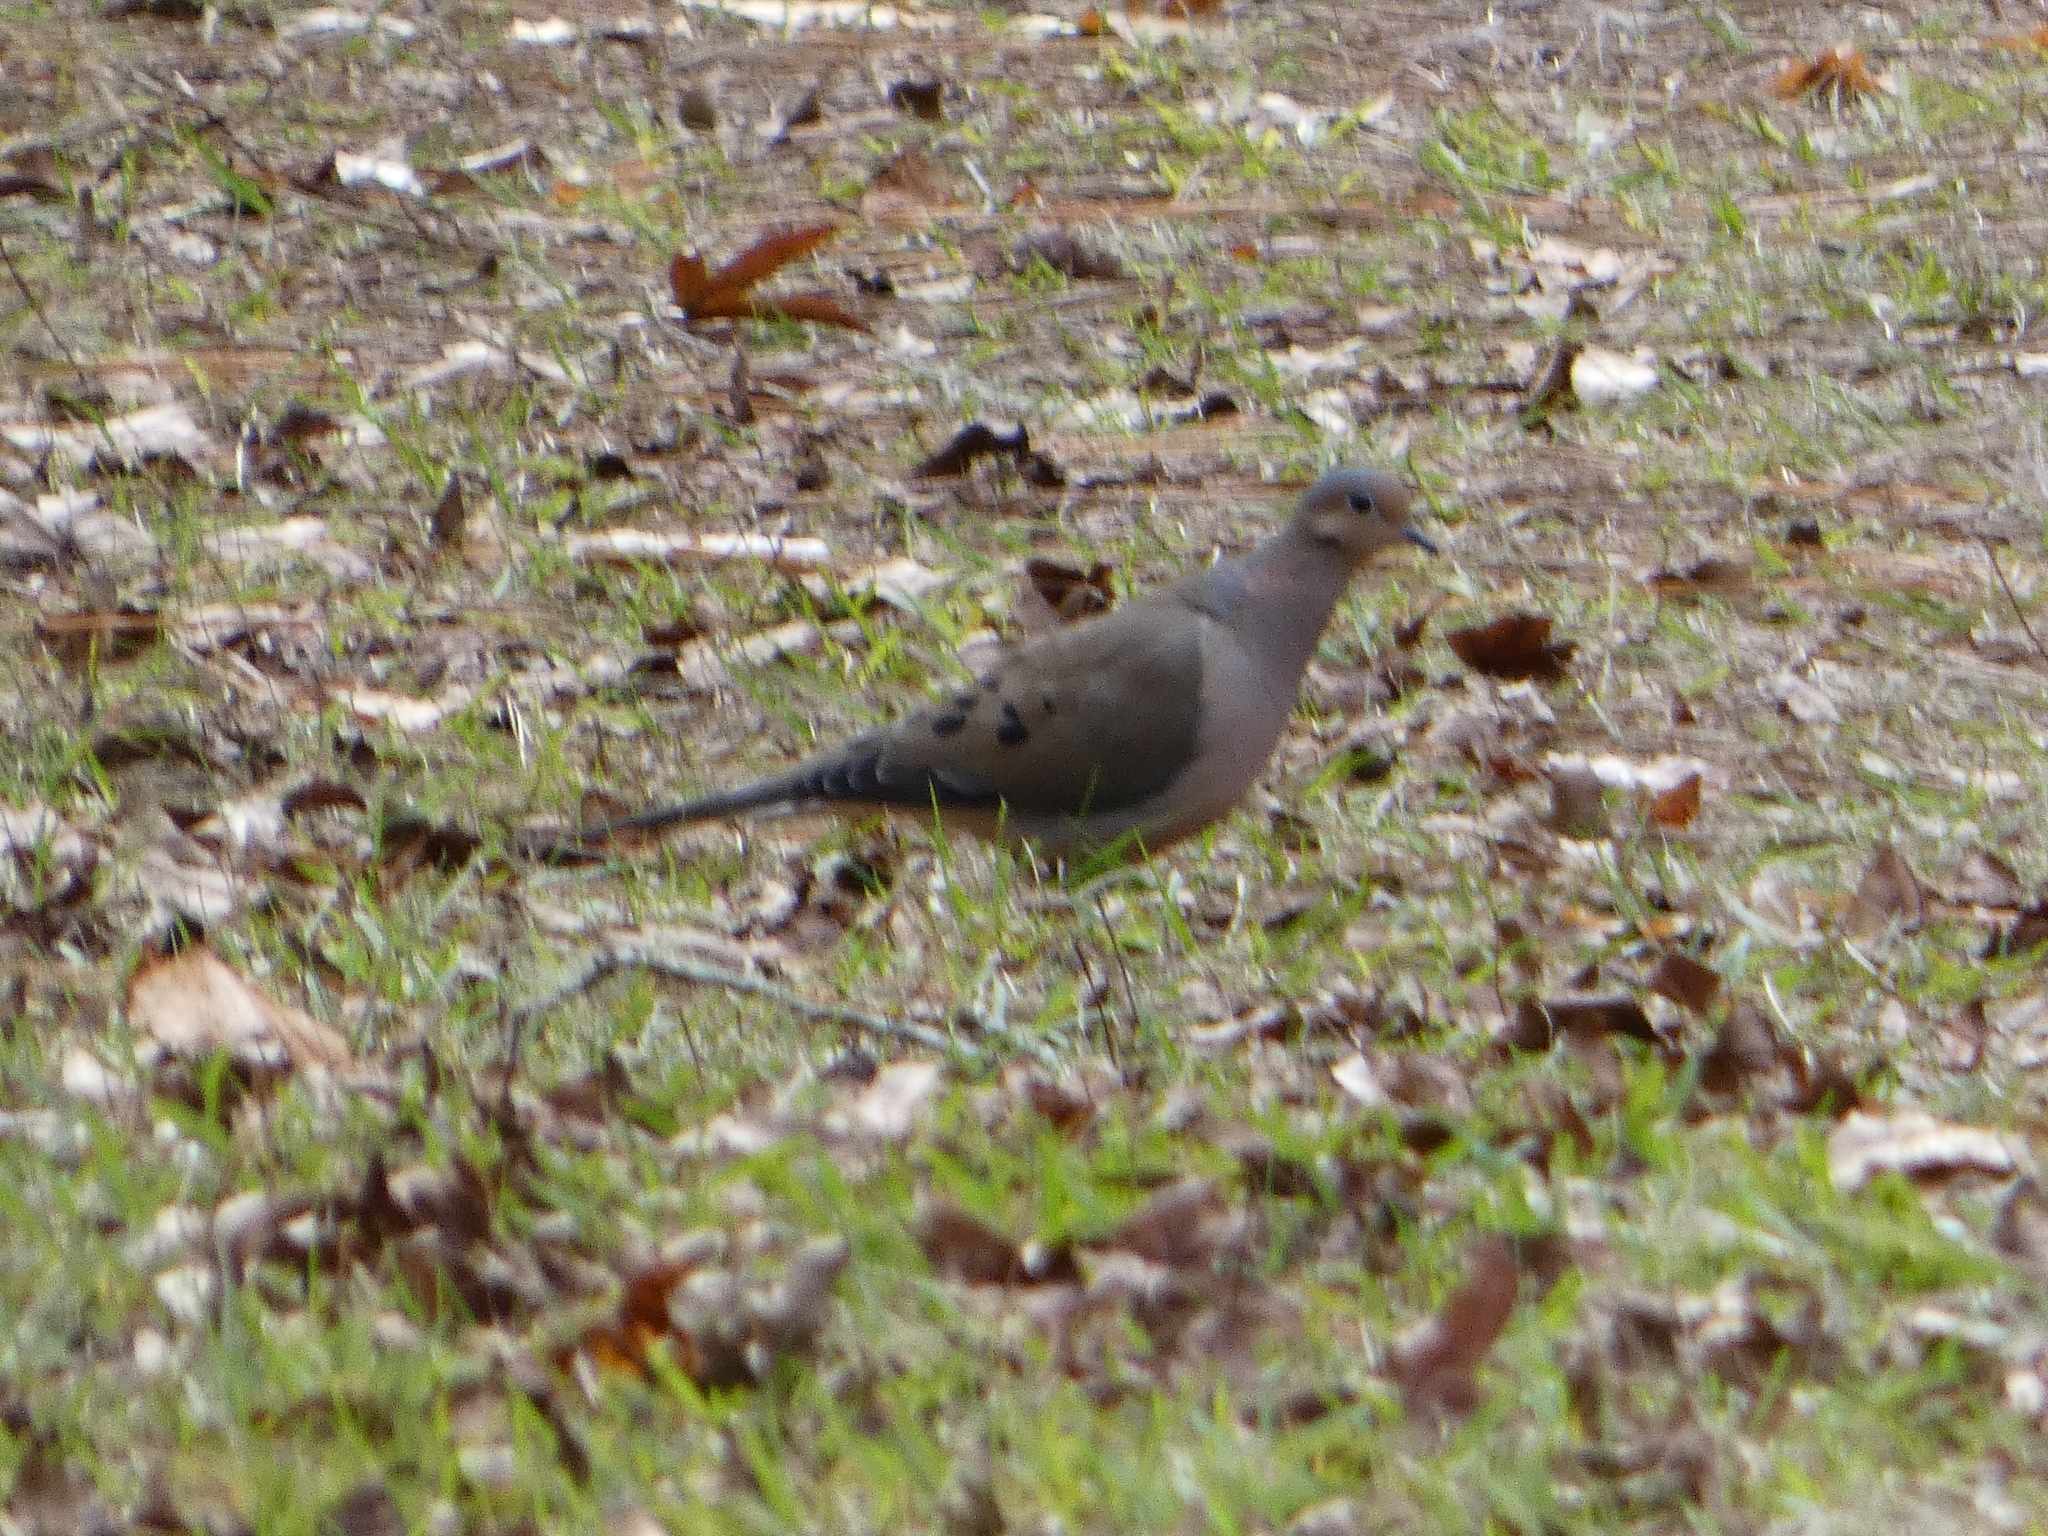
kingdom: Animalia
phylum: Chordata
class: Aves
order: Columbiformes
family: Columbidae
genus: Zenaida
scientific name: Zenaida macroura
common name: Mourning dove
